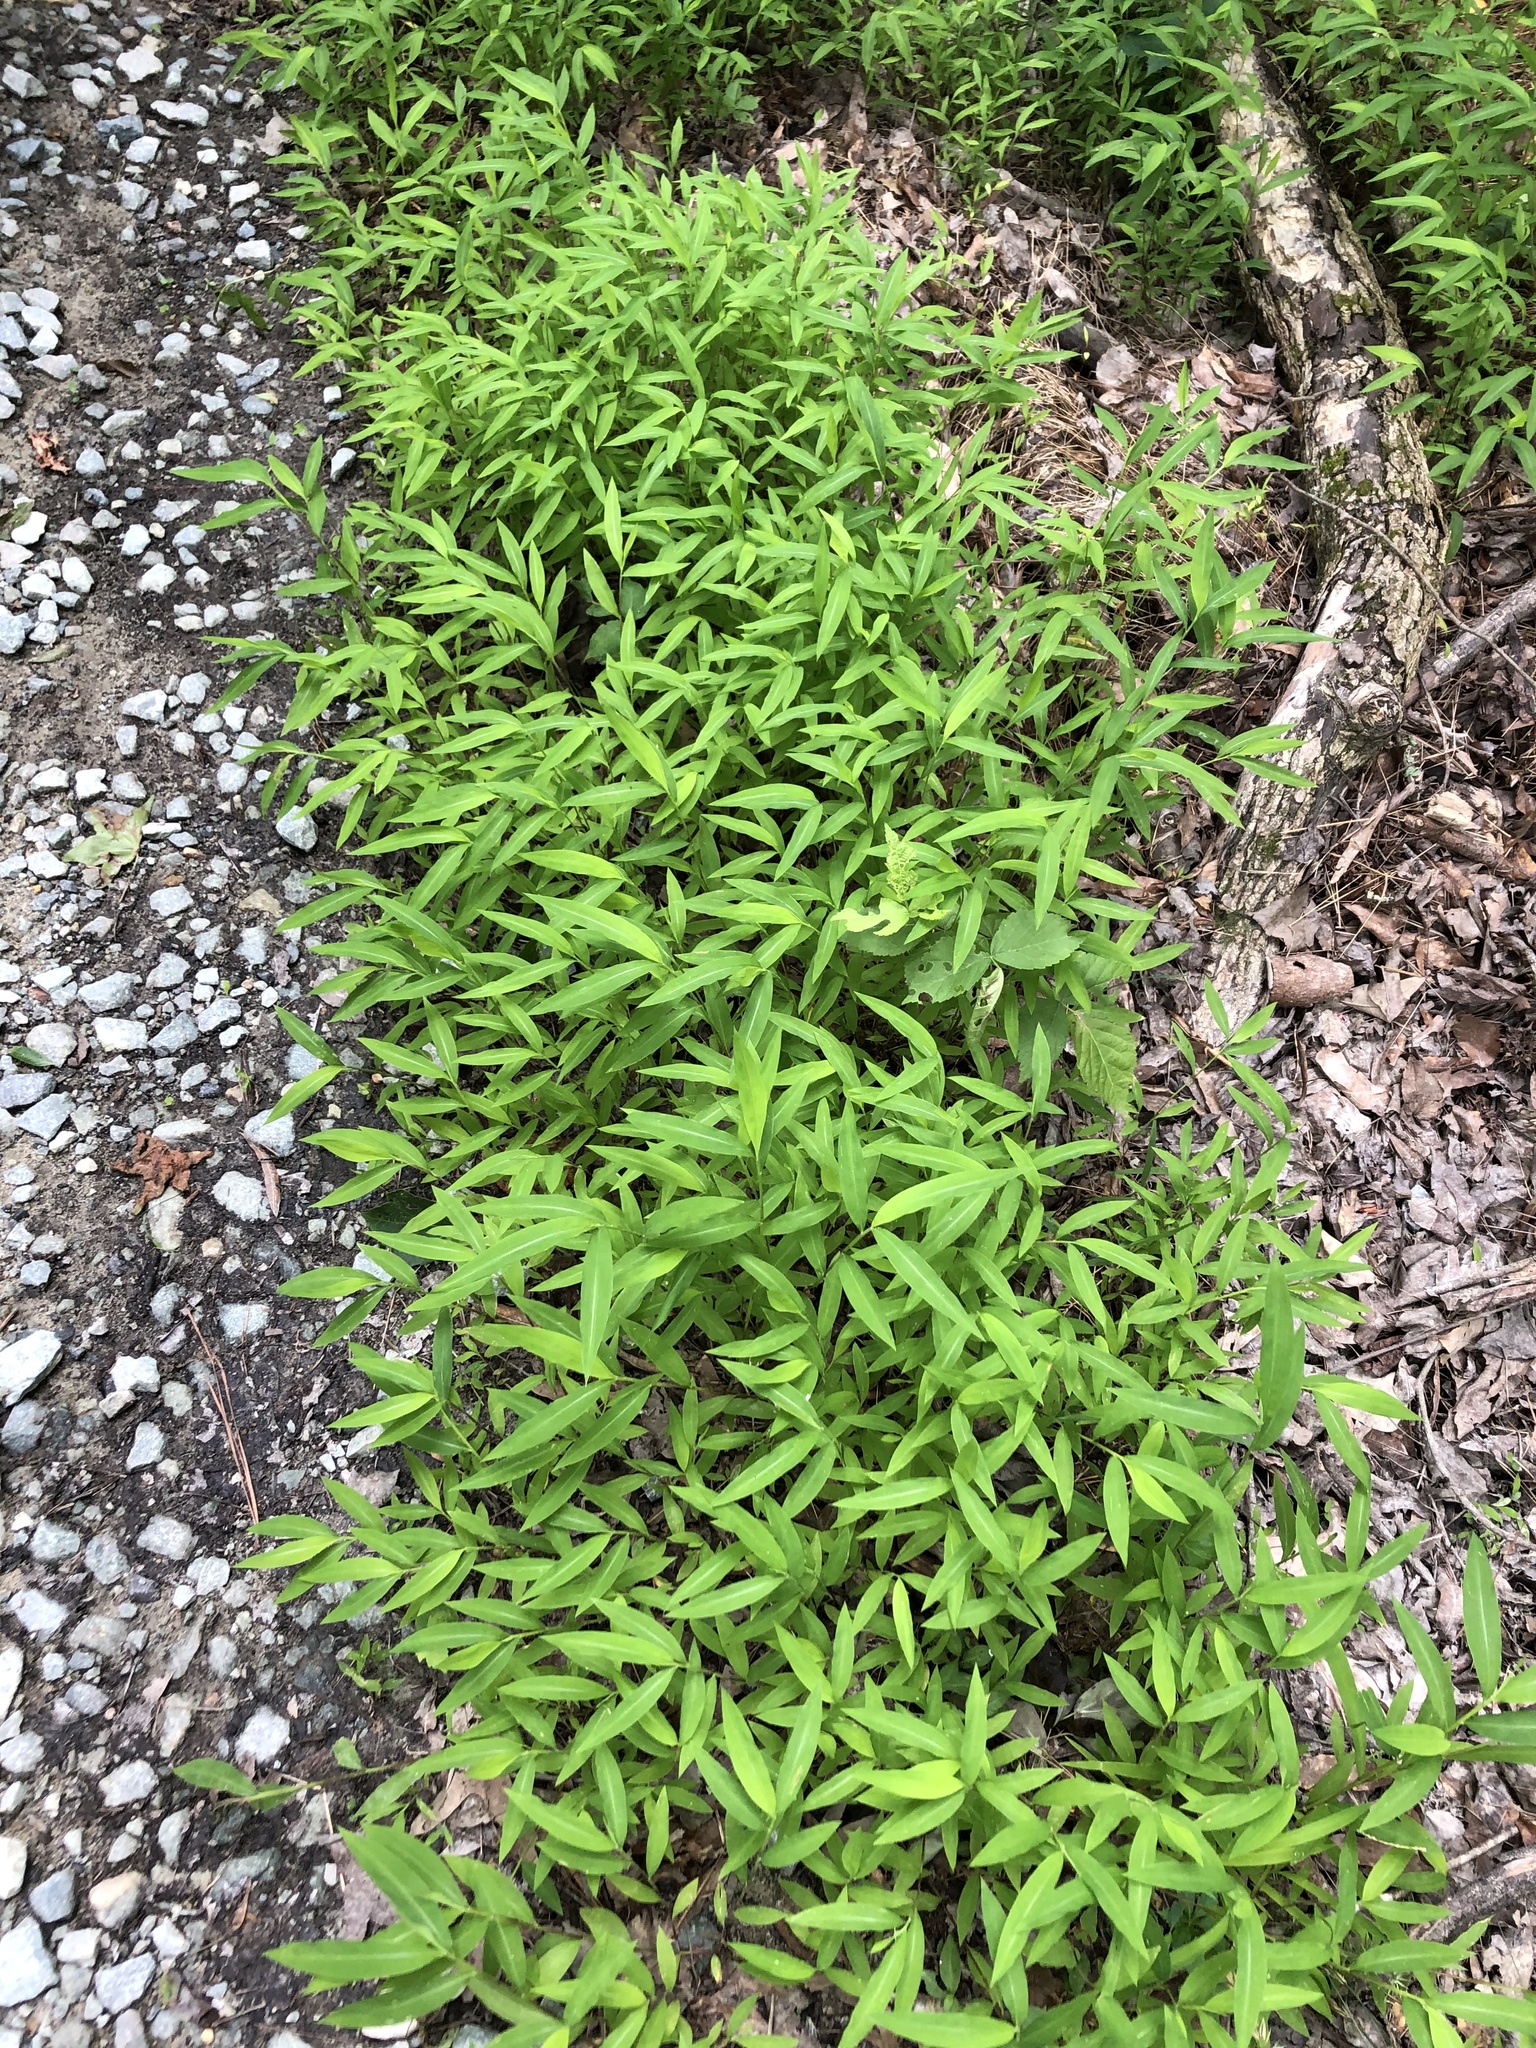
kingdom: Plantae
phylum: Tracheophyta
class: Liliopsida
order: Poales
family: Poaceae
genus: Microstegium
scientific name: Microstegium vimineum
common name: Japanese stiltgrass
